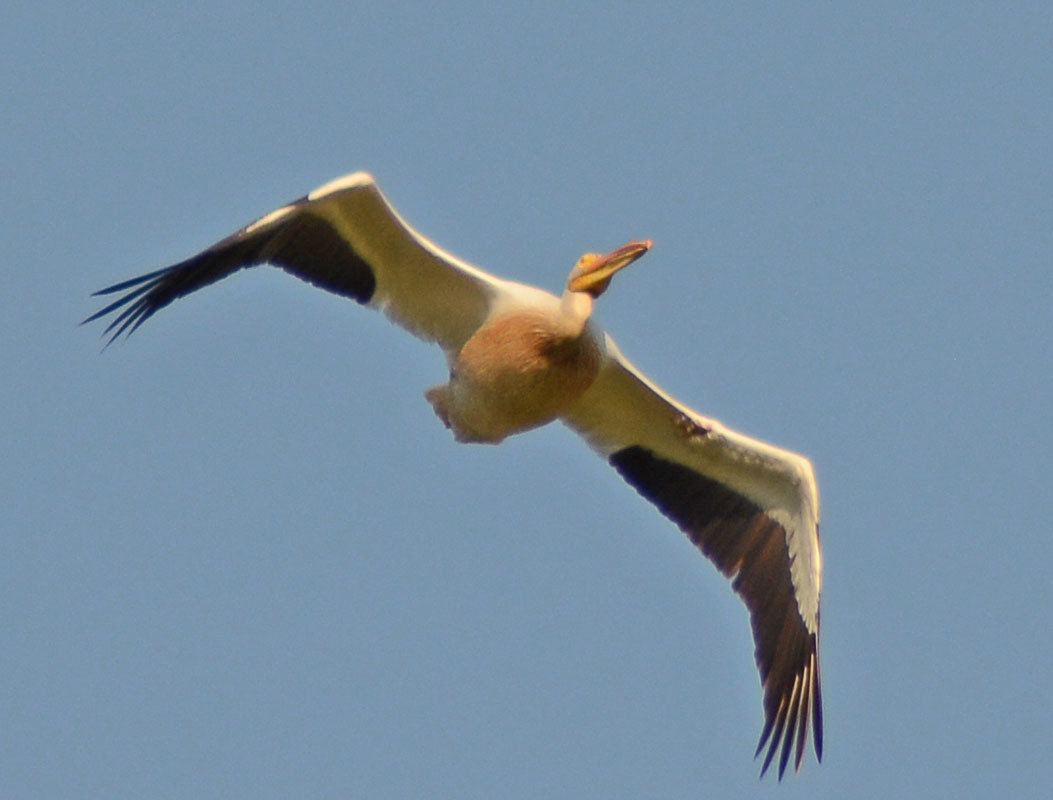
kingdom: Animalia
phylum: Chordata
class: Aves
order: Pelecaniformes
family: Pelecanidae
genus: Pelecanus
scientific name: Pelecanus erythrorhynchos
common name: American white pelican
